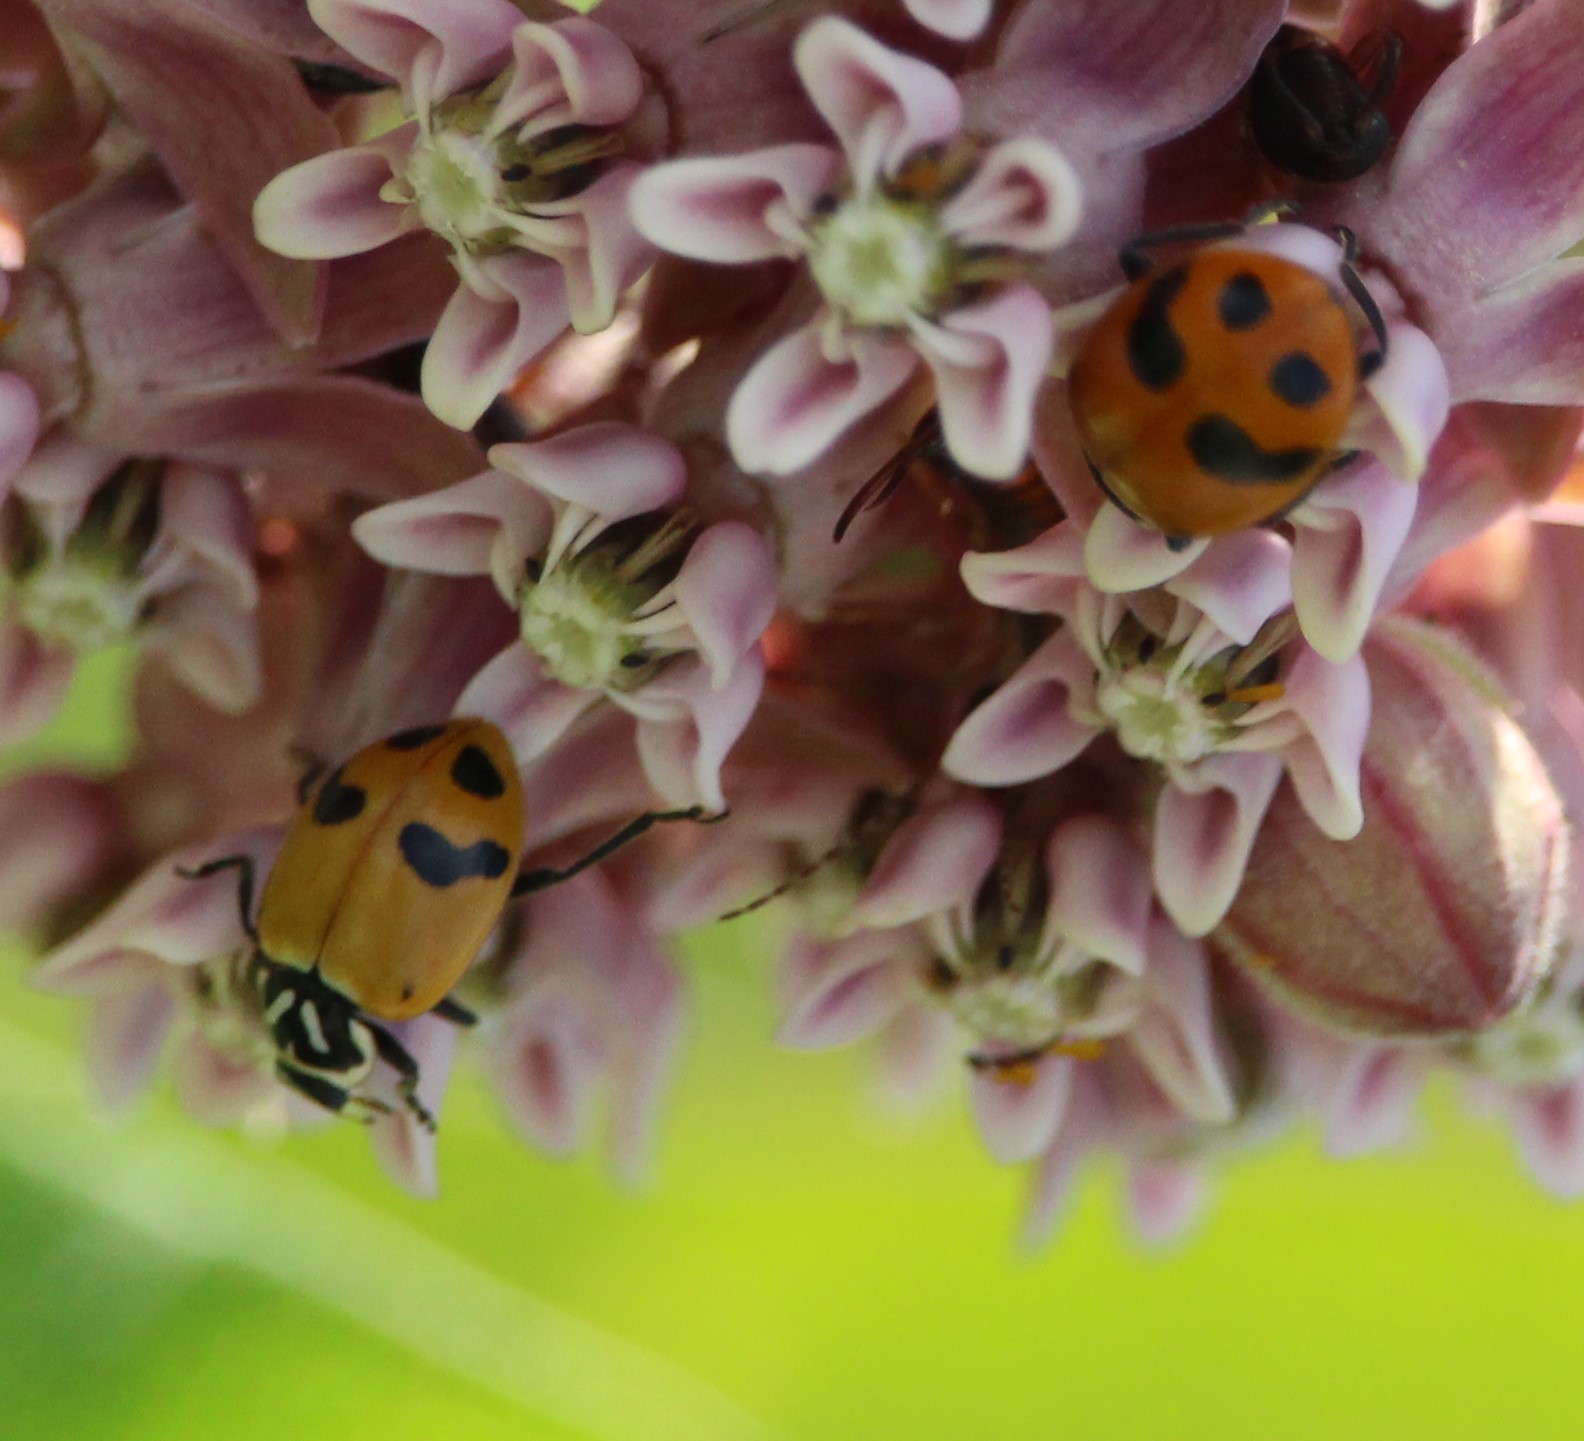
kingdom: Animalia
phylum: Arthropoda
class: Insecta
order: Coleoptera
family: Coccinellidae
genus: Hippodamia
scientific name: Hippodamia glacialis
